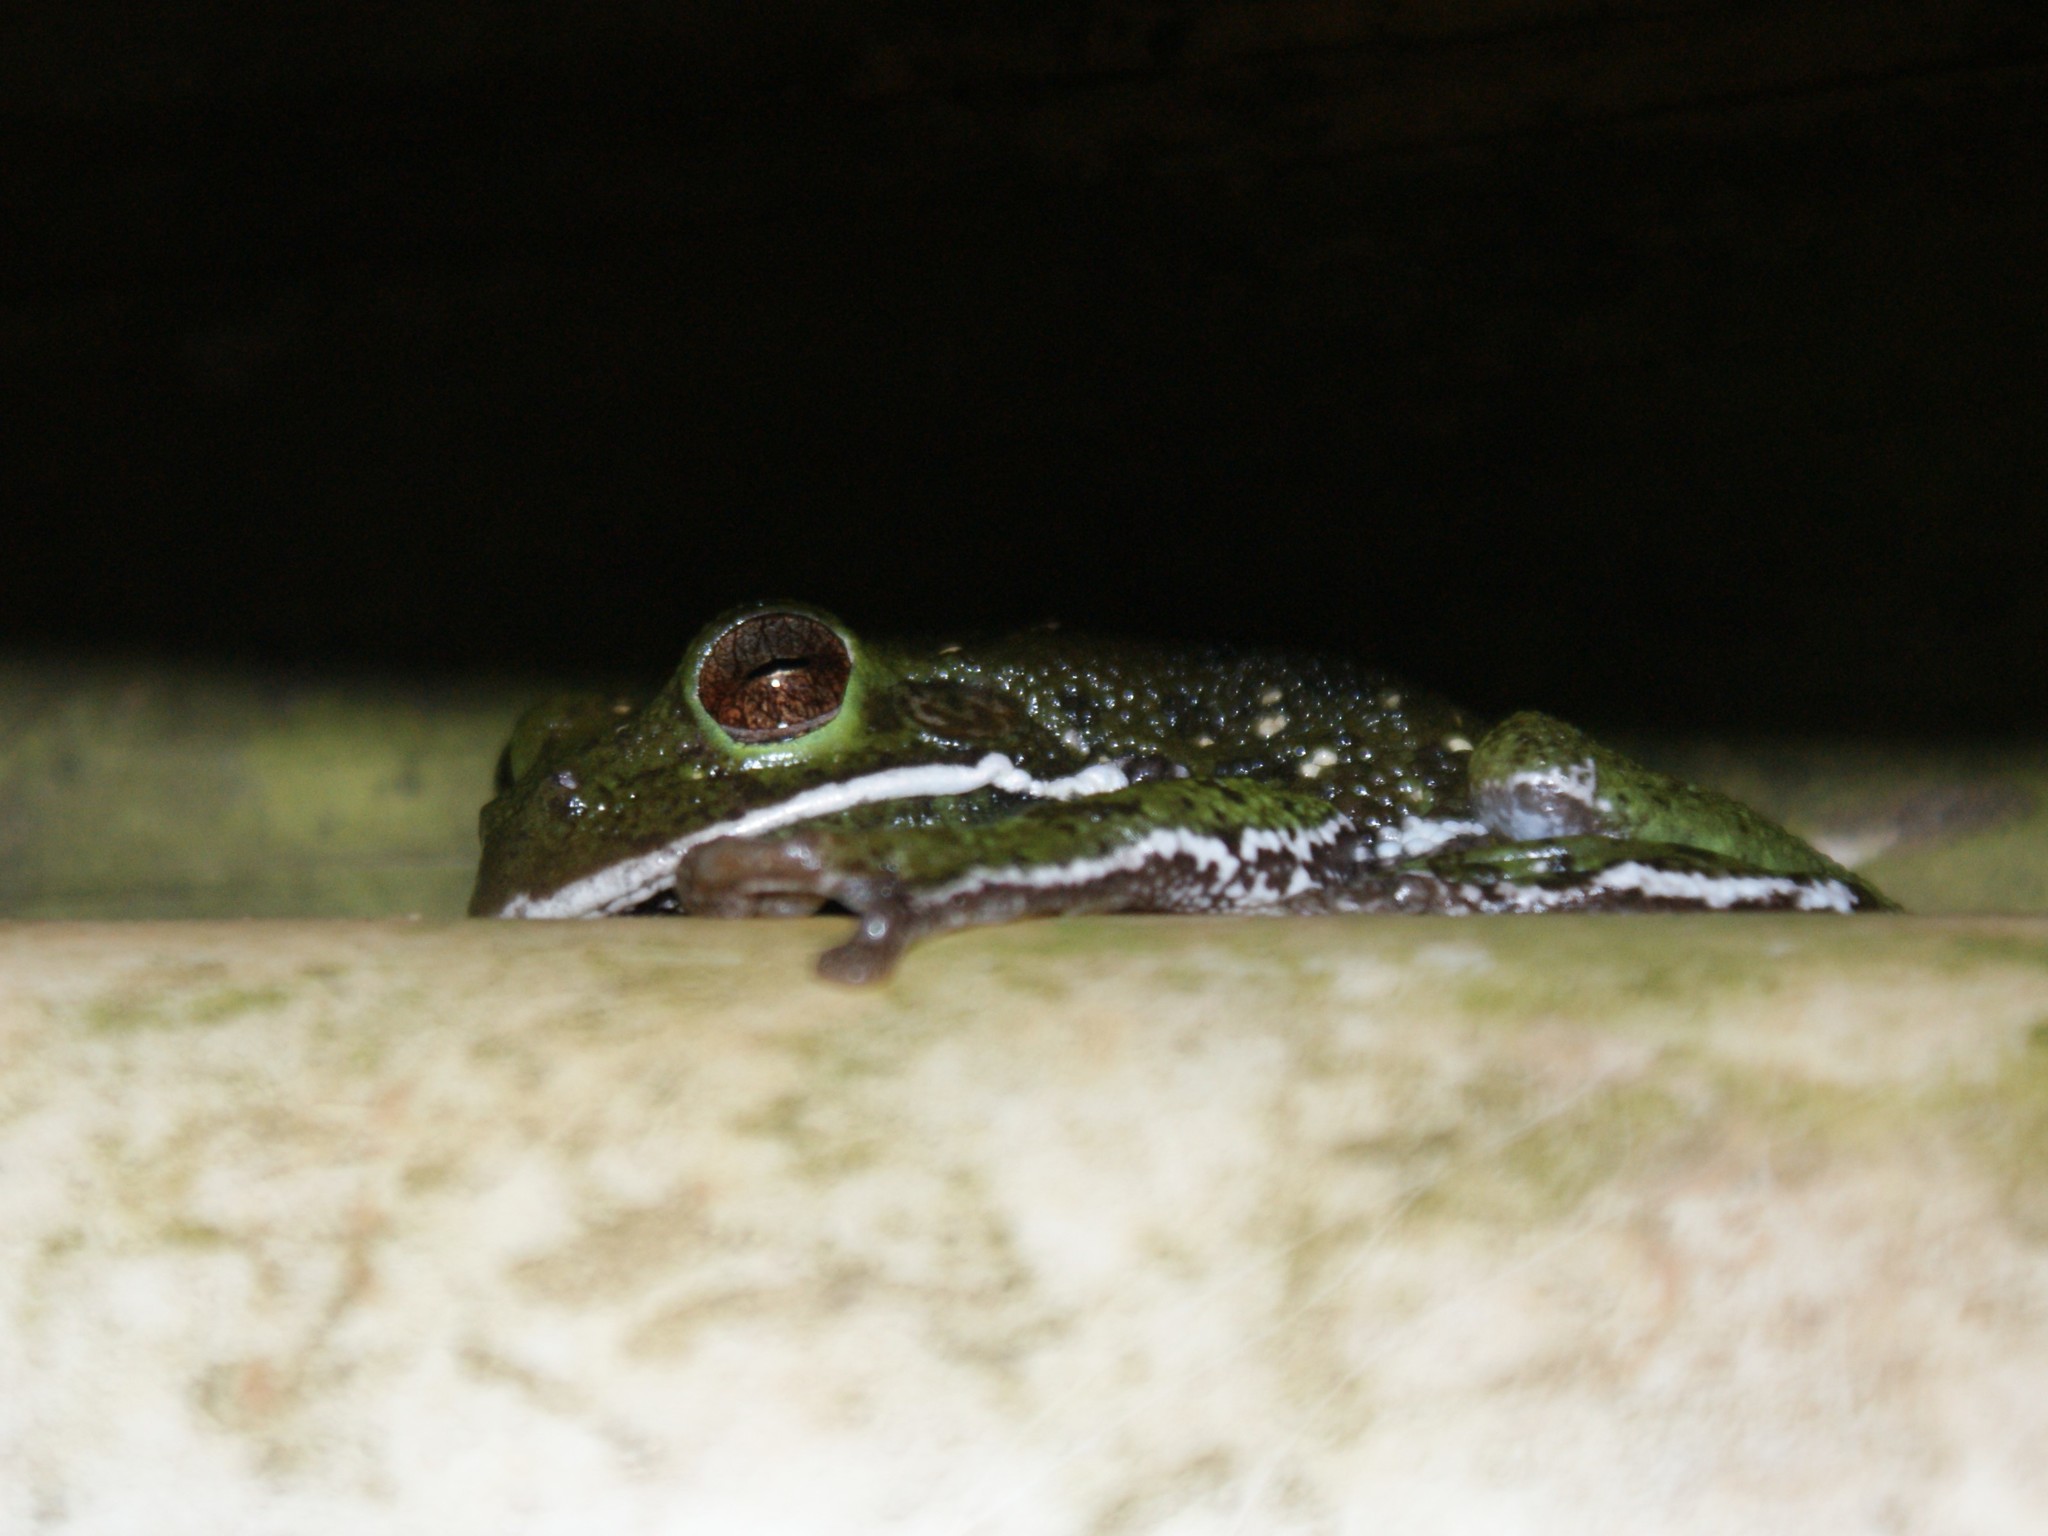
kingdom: Animalia
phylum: Chordata
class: Amphibia
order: Anura
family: Hylidae
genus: Dryophytes
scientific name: Dryophytes gratiosus
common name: Barking treefrog
